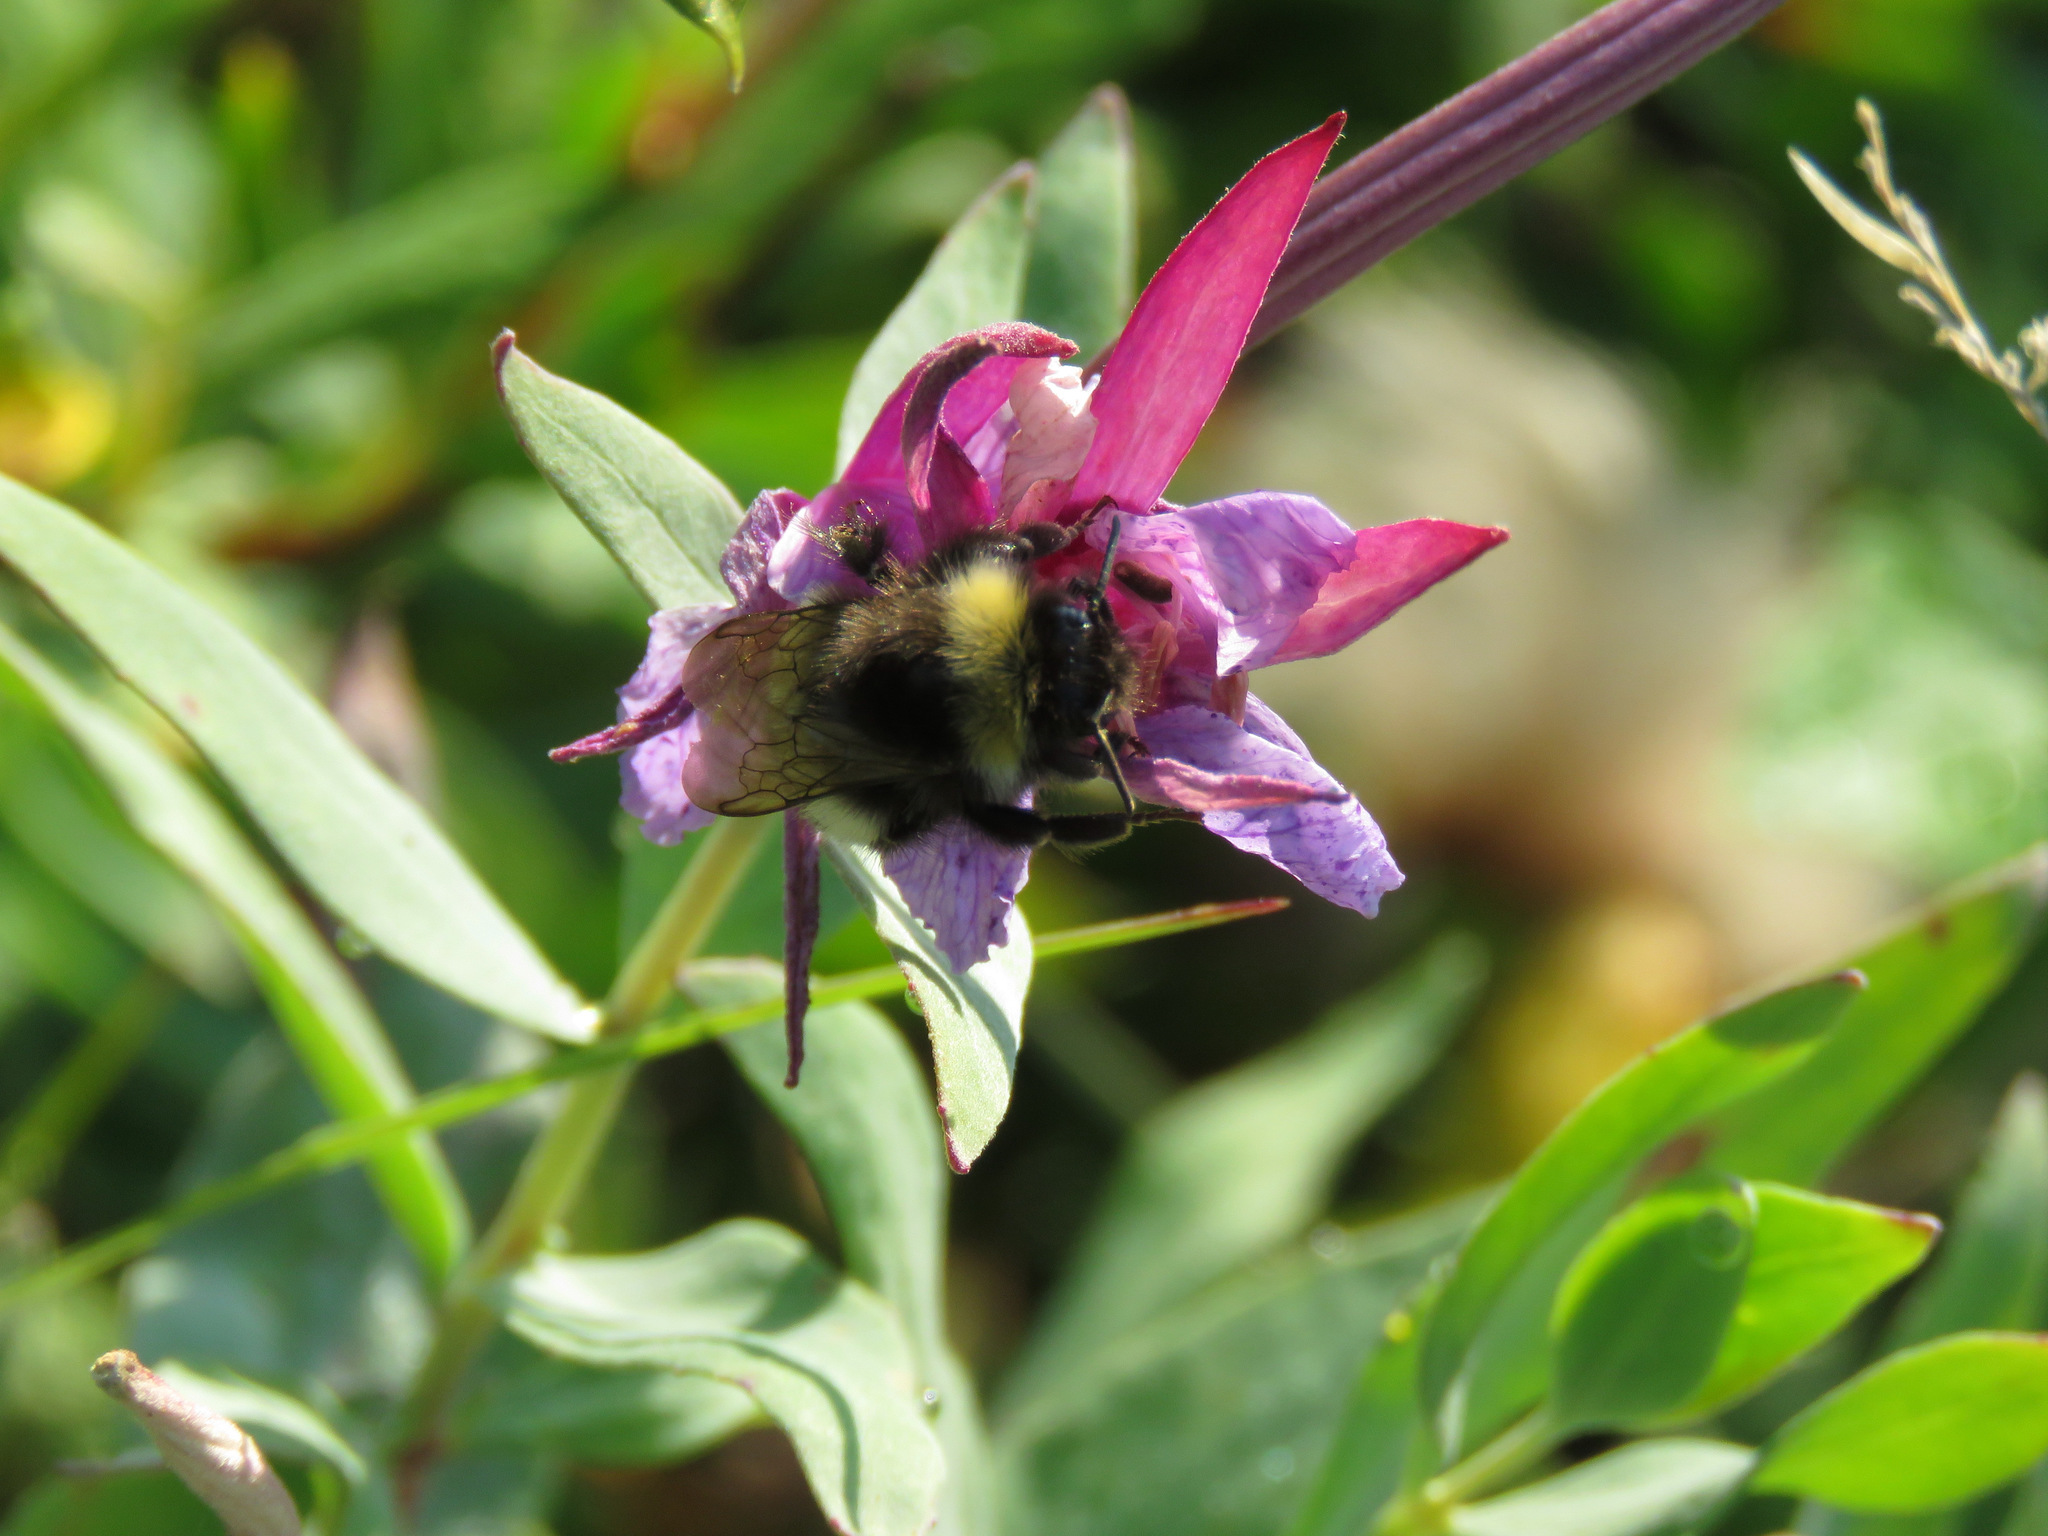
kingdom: Animalia
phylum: Arthropoda
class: Insecta
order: Hymenoptera
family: Apidae
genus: Bombus
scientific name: Bombus cryptarum
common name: Cryptic bumblebee
